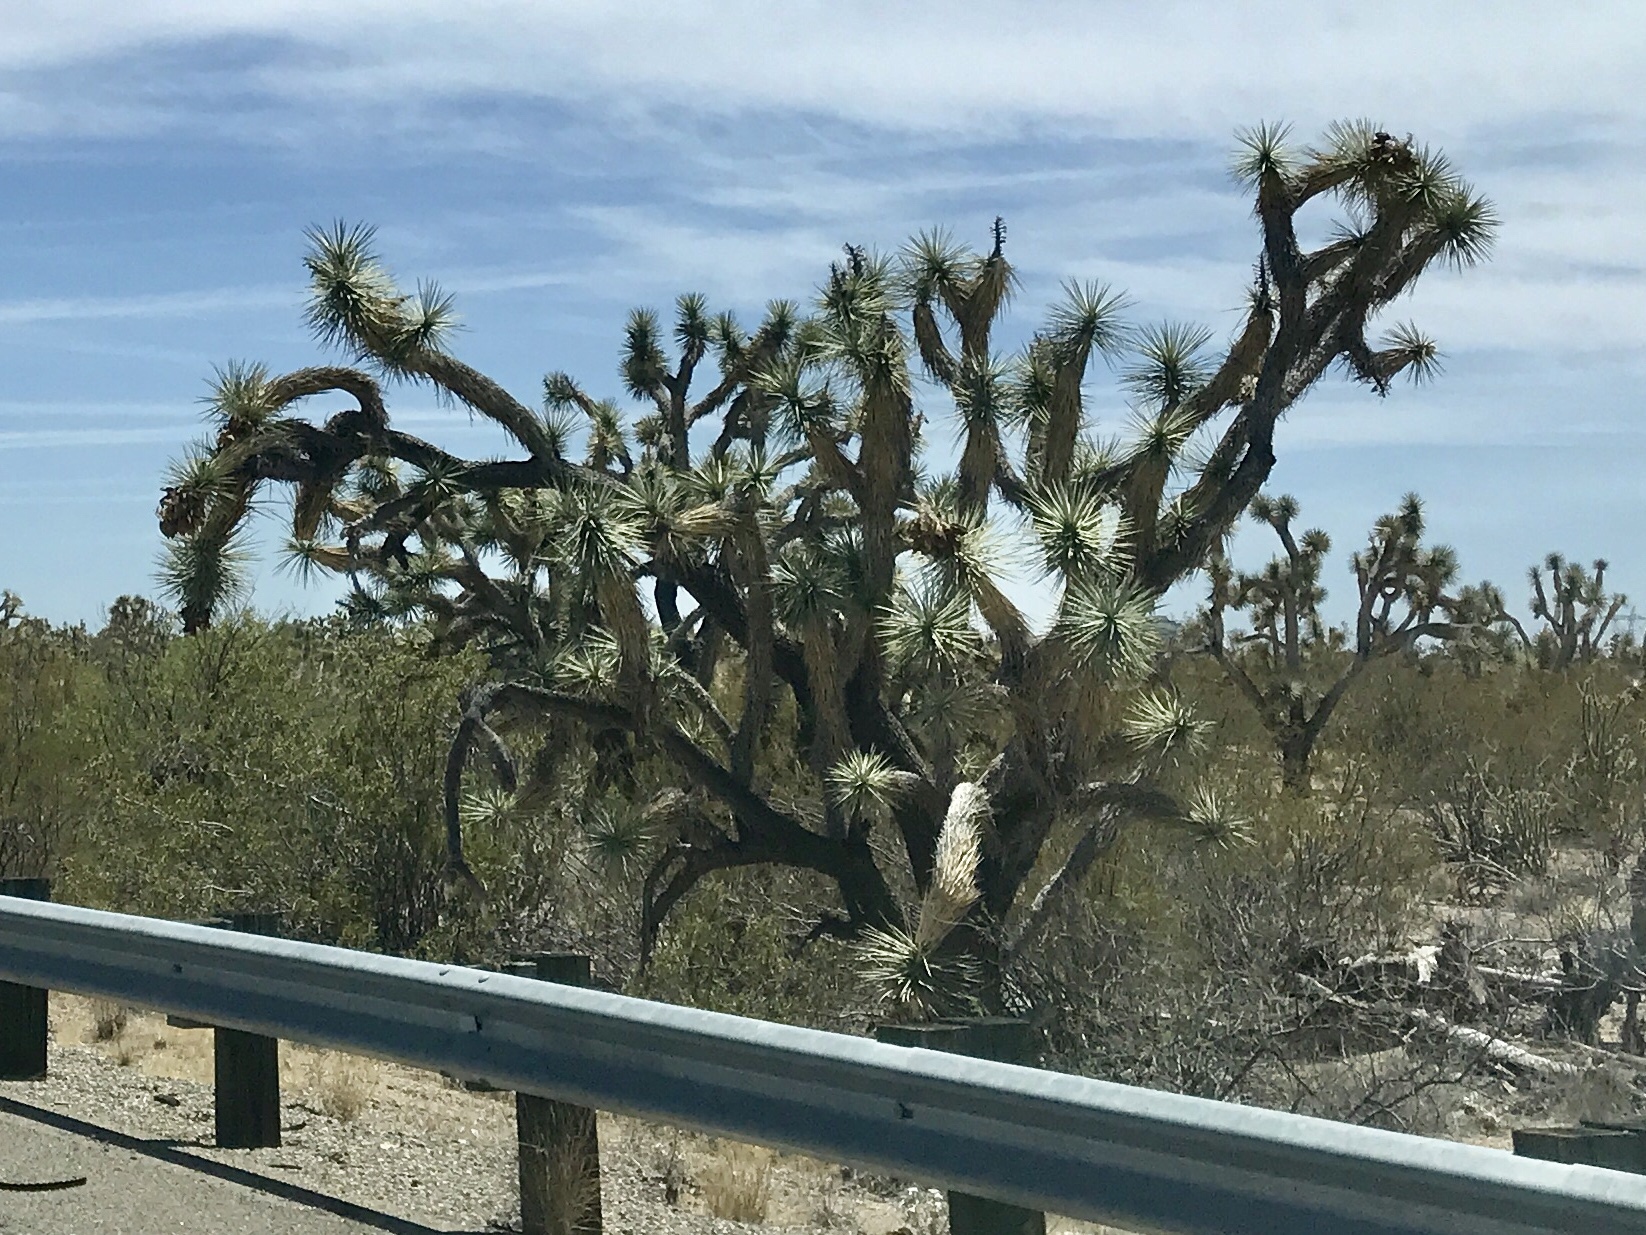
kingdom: Plantae
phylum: Tracheophyta
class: Liliopsida
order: Asparagales
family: Asparagaceae
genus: Yucca
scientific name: Yucca brevifolia
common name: Joshua tree
